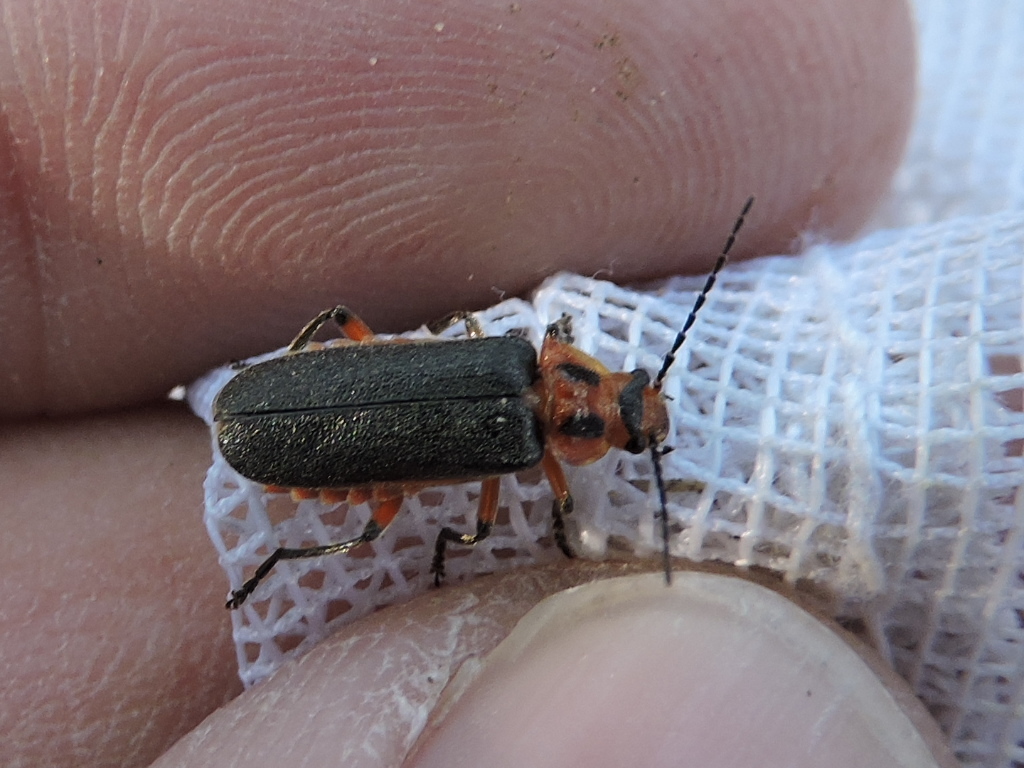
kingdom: Animalia
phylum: Arthropoda
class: Insecta
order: Coleoptera
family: Cantharidae
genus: Atalantycha
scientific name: Atalantycha bilineata
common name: Two-lined leatherwing
